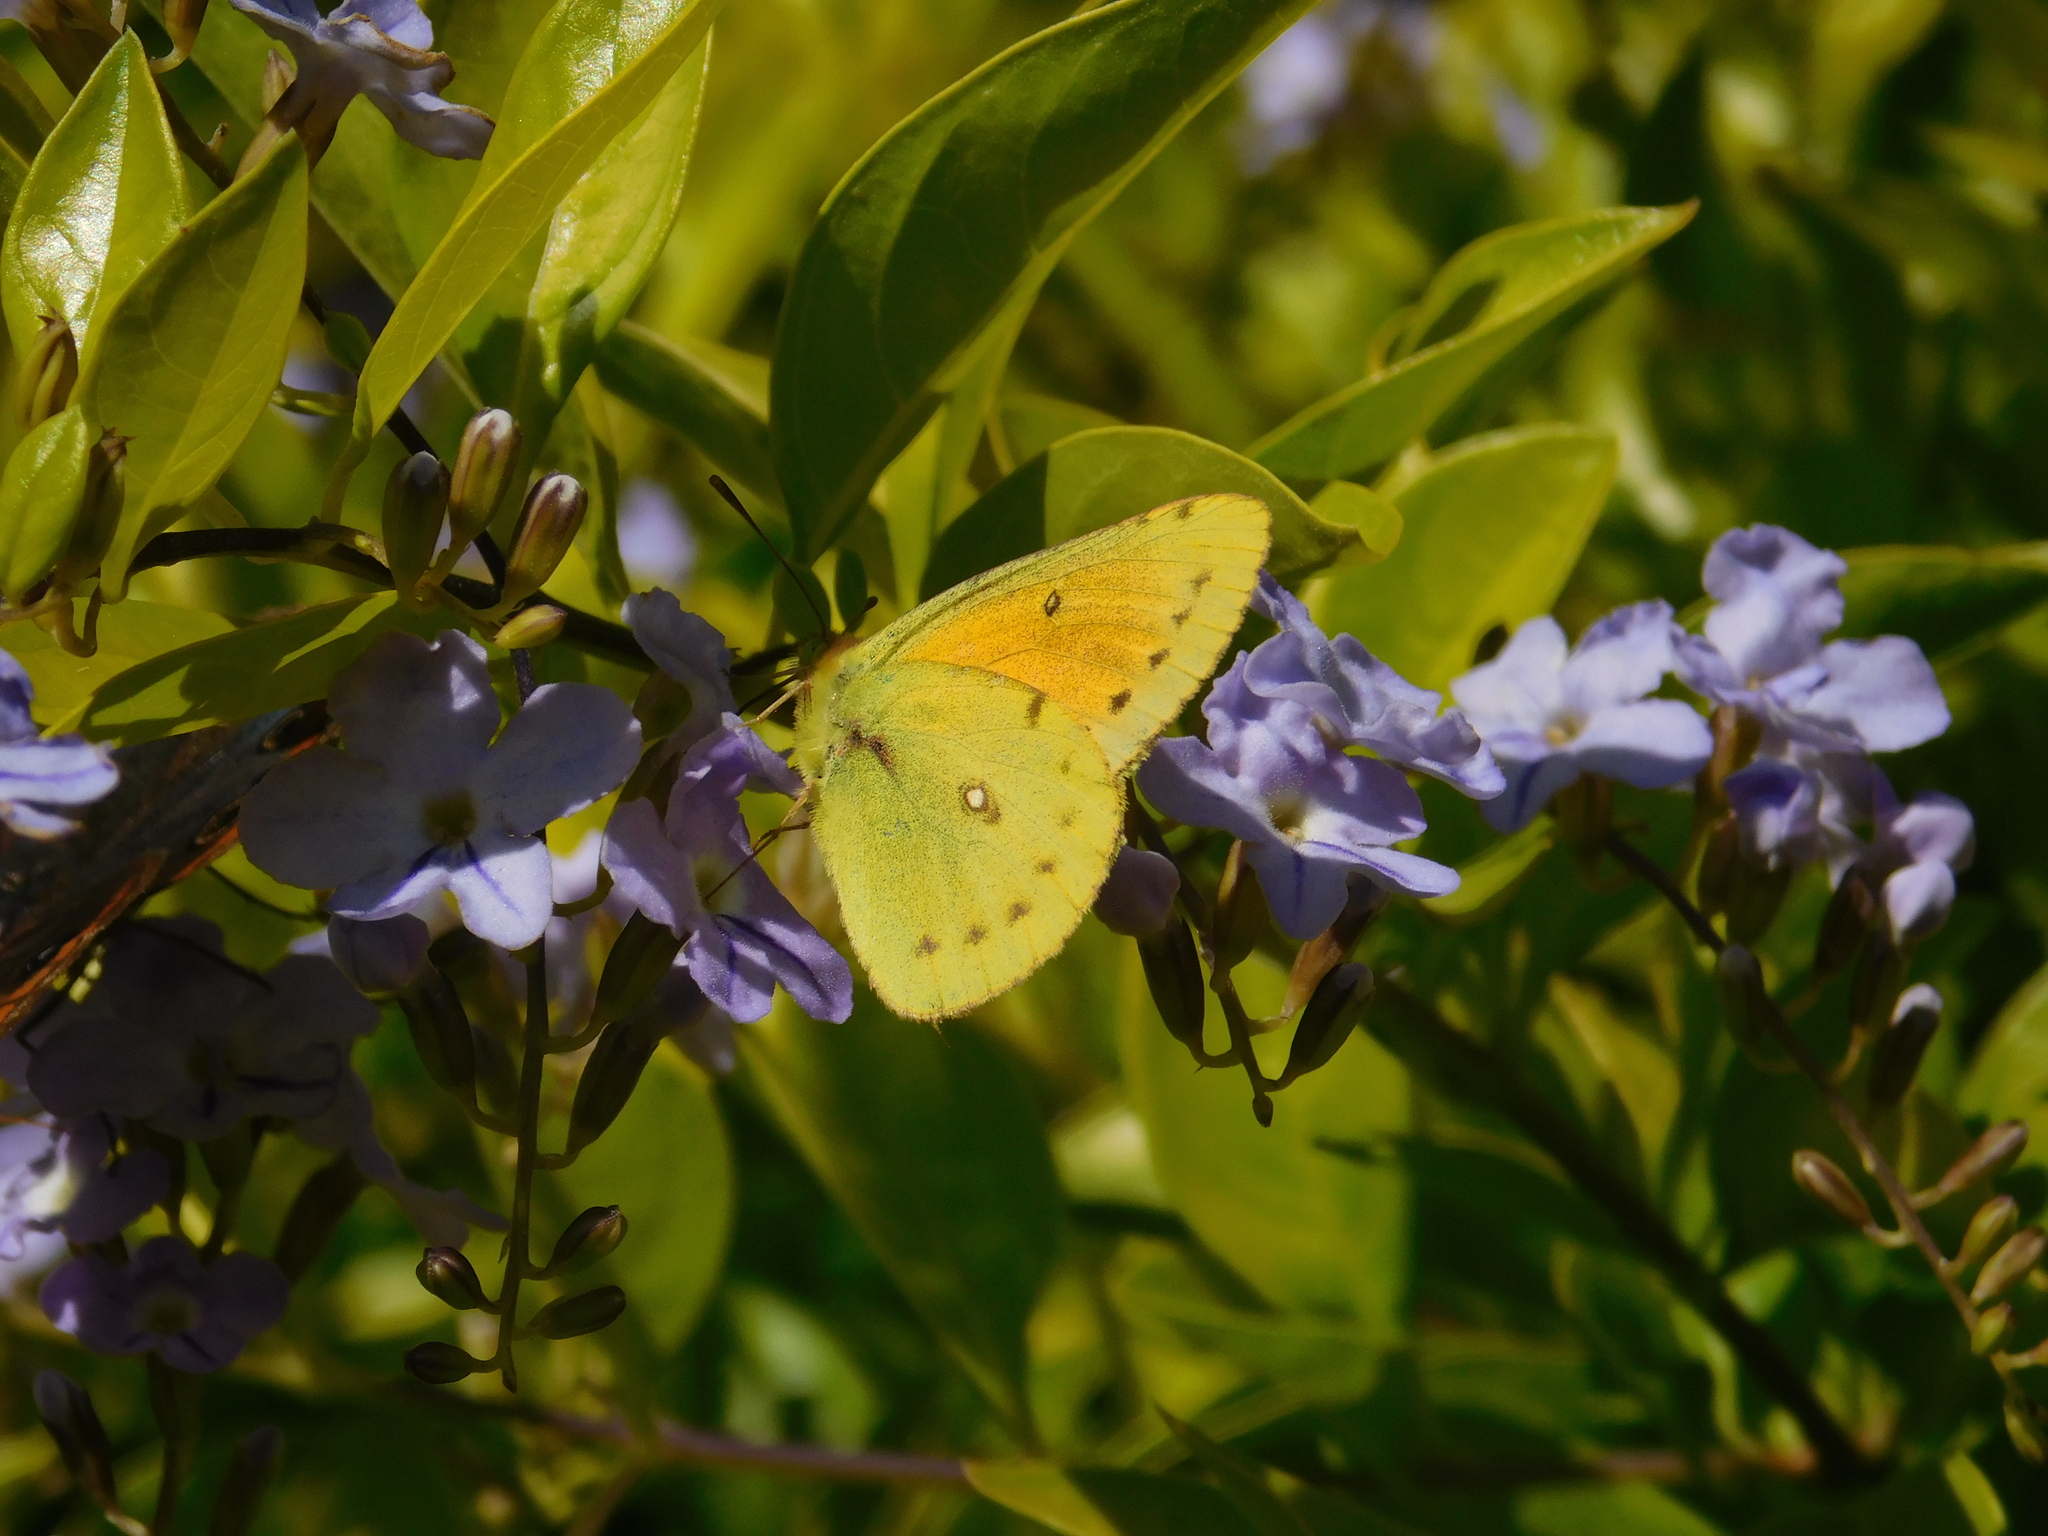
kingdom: Animalia
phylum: Arthropoda
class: Insecta
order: Lepidoptera
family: Pieridae
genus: Colias
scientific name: Colias lesbia
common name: Lesbia clouded yellow
